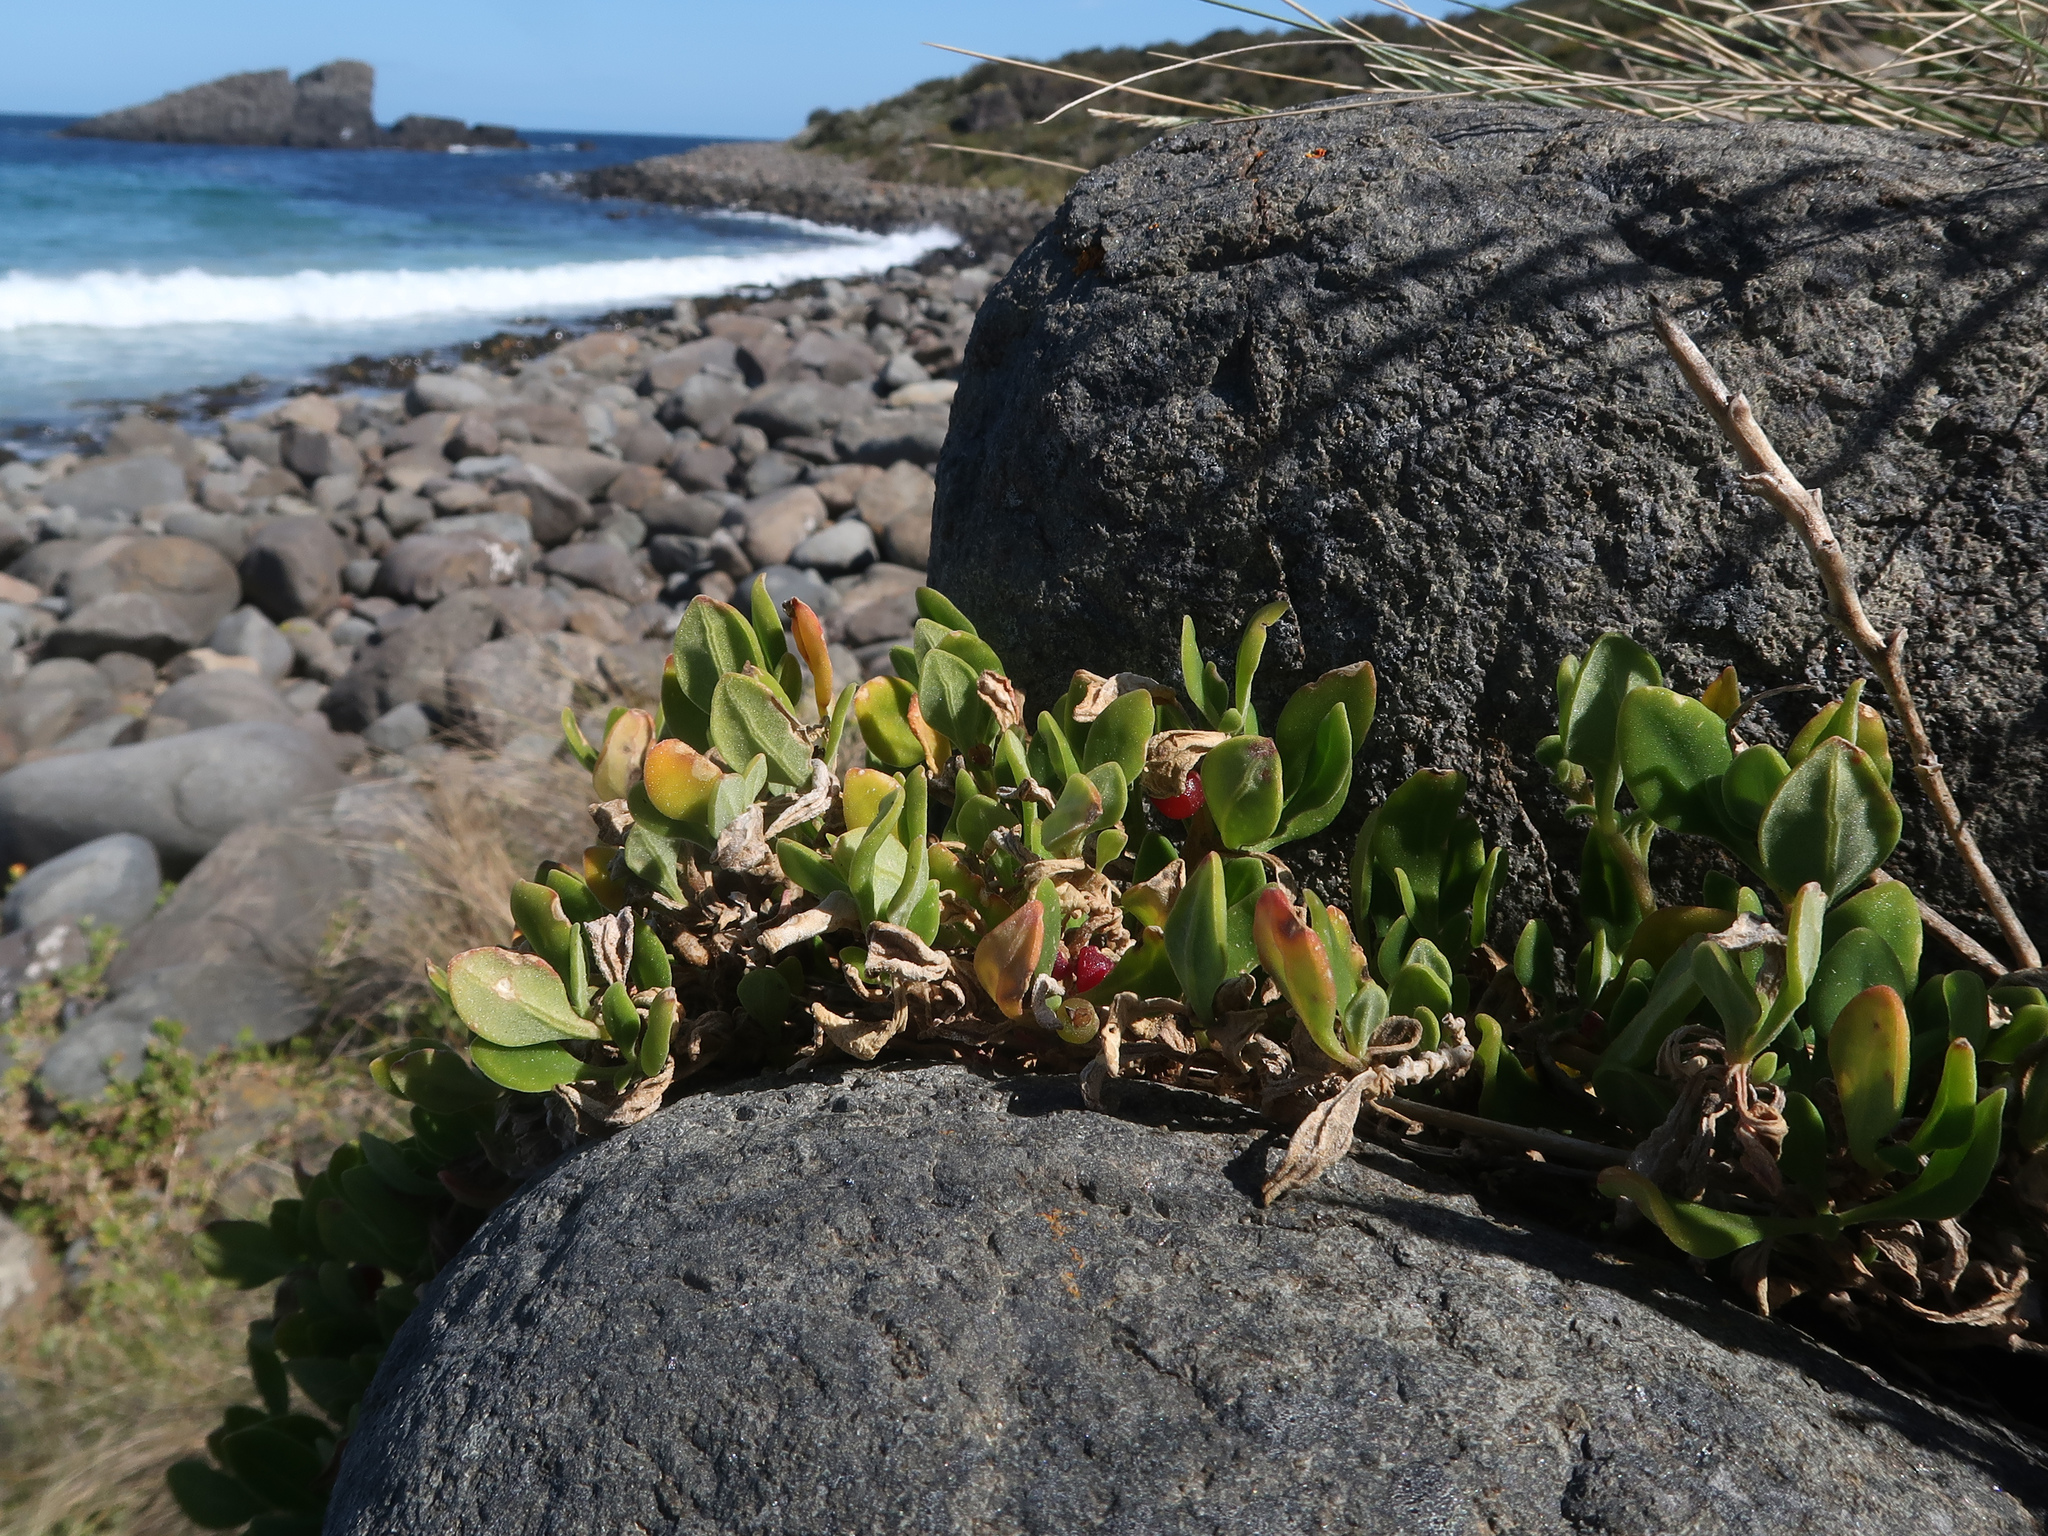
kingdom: Plantae
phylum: Tracheophyta
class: Magnoliopsida
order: Caryophyllales
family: Aizoaceae
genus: Tetragonia
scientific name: Tetragonia implexicoma
